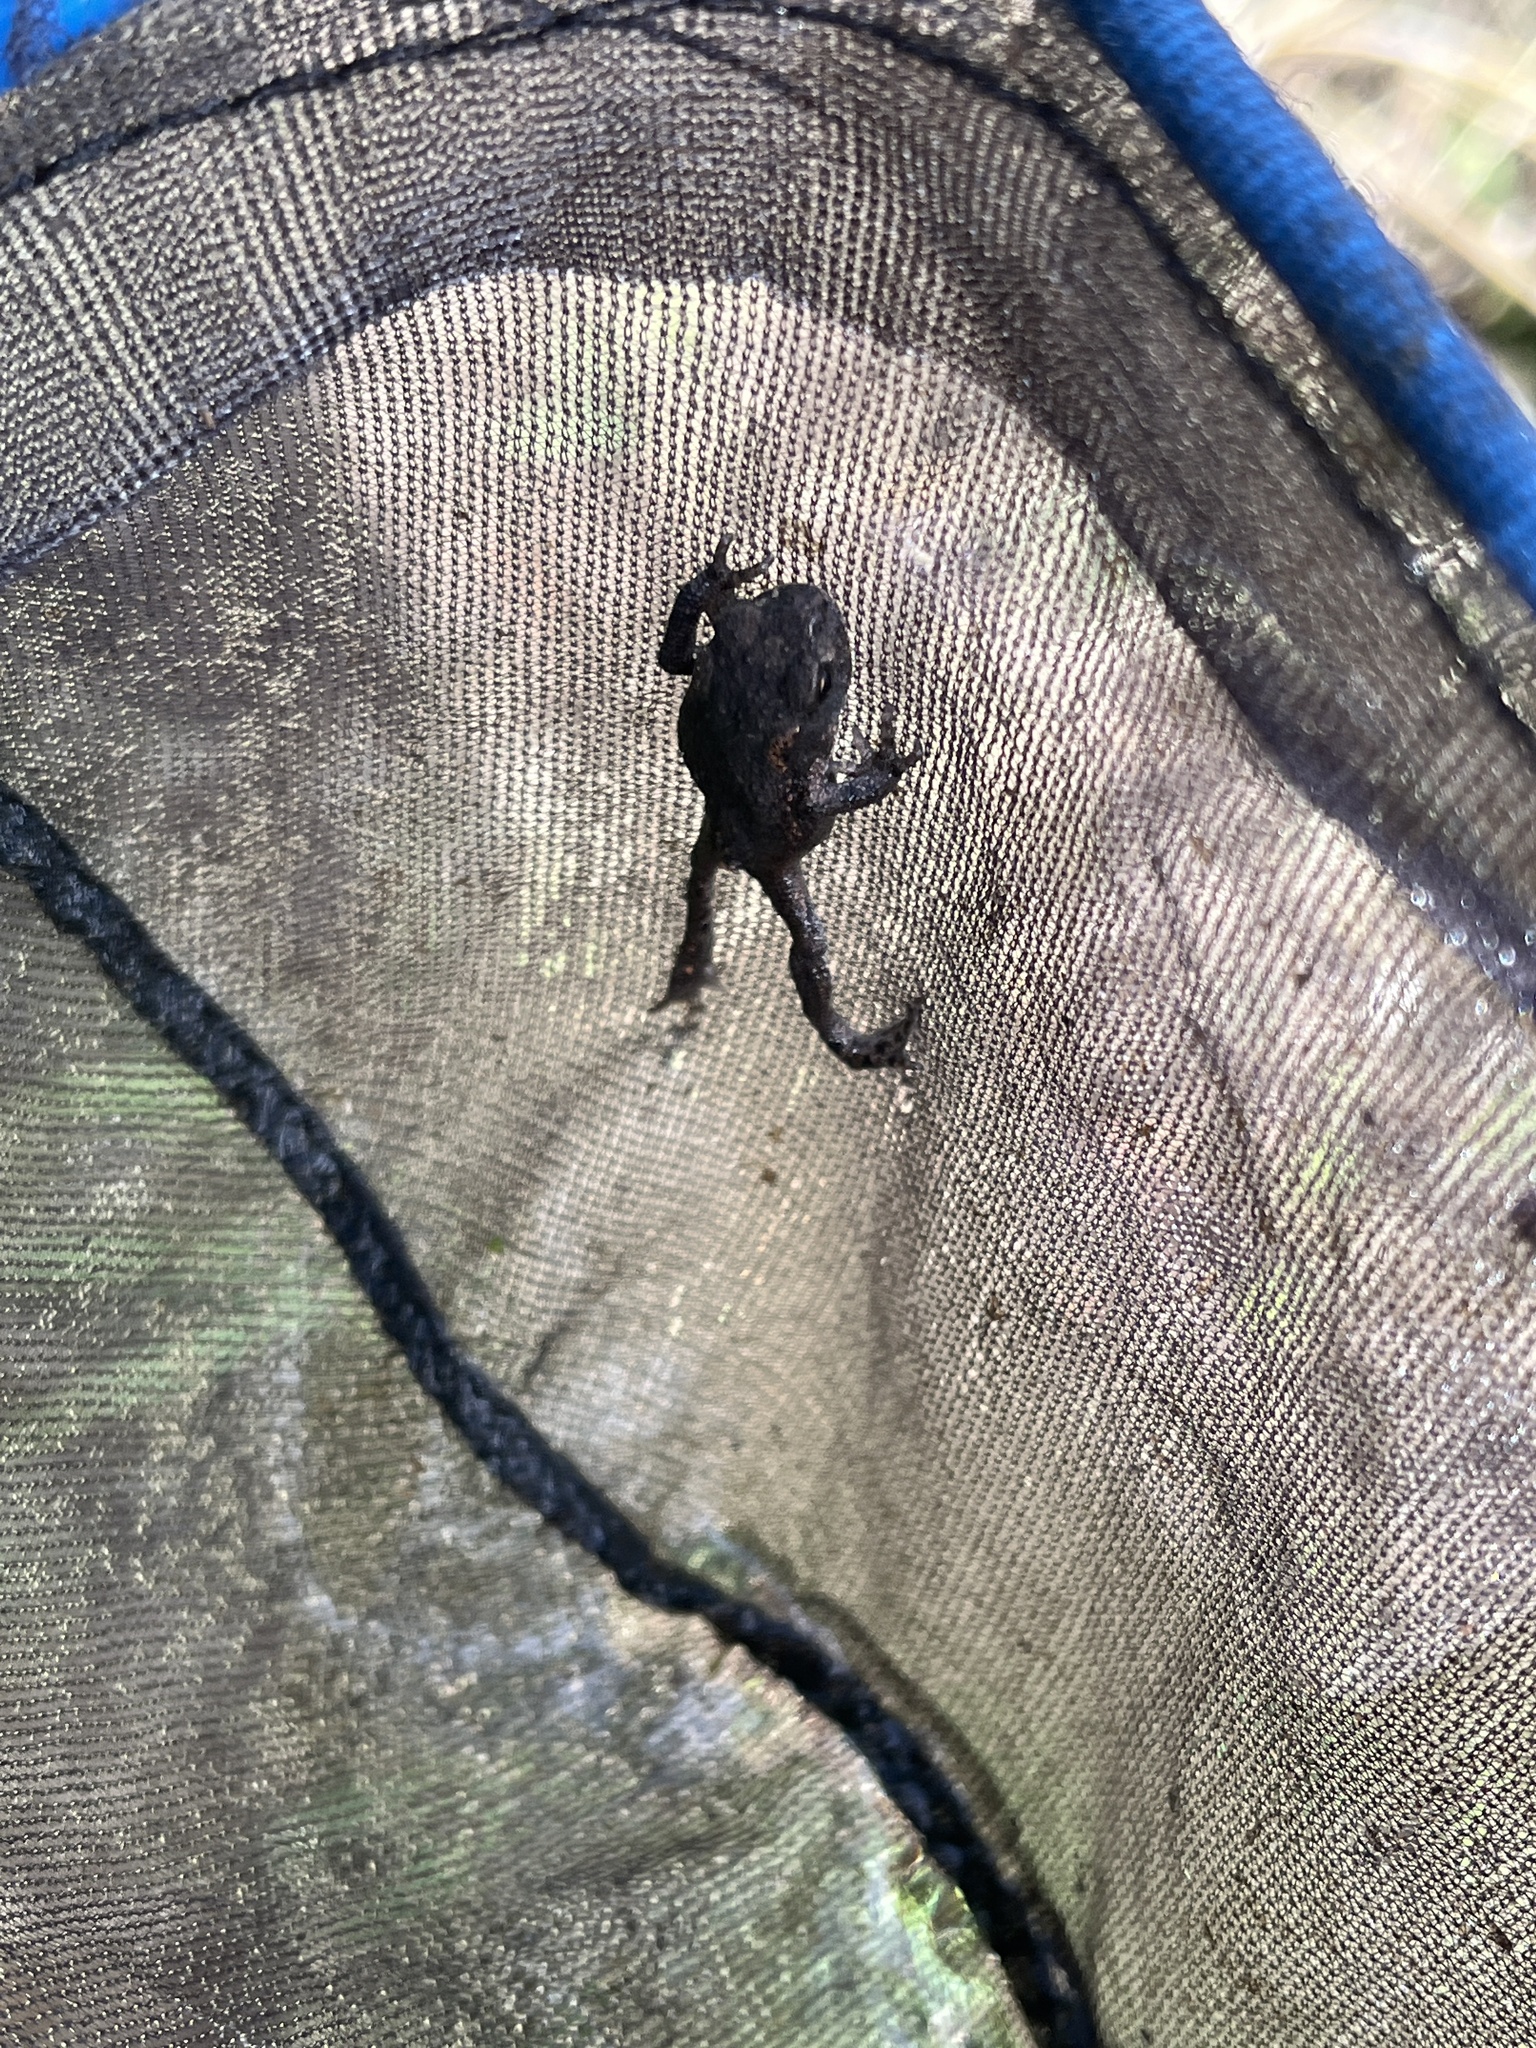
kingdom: Animalia
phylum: Chordata
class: Amphibia
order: Anura
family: Bufonidae
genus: Bufo
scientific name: Bufo bufo
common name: Common toad
